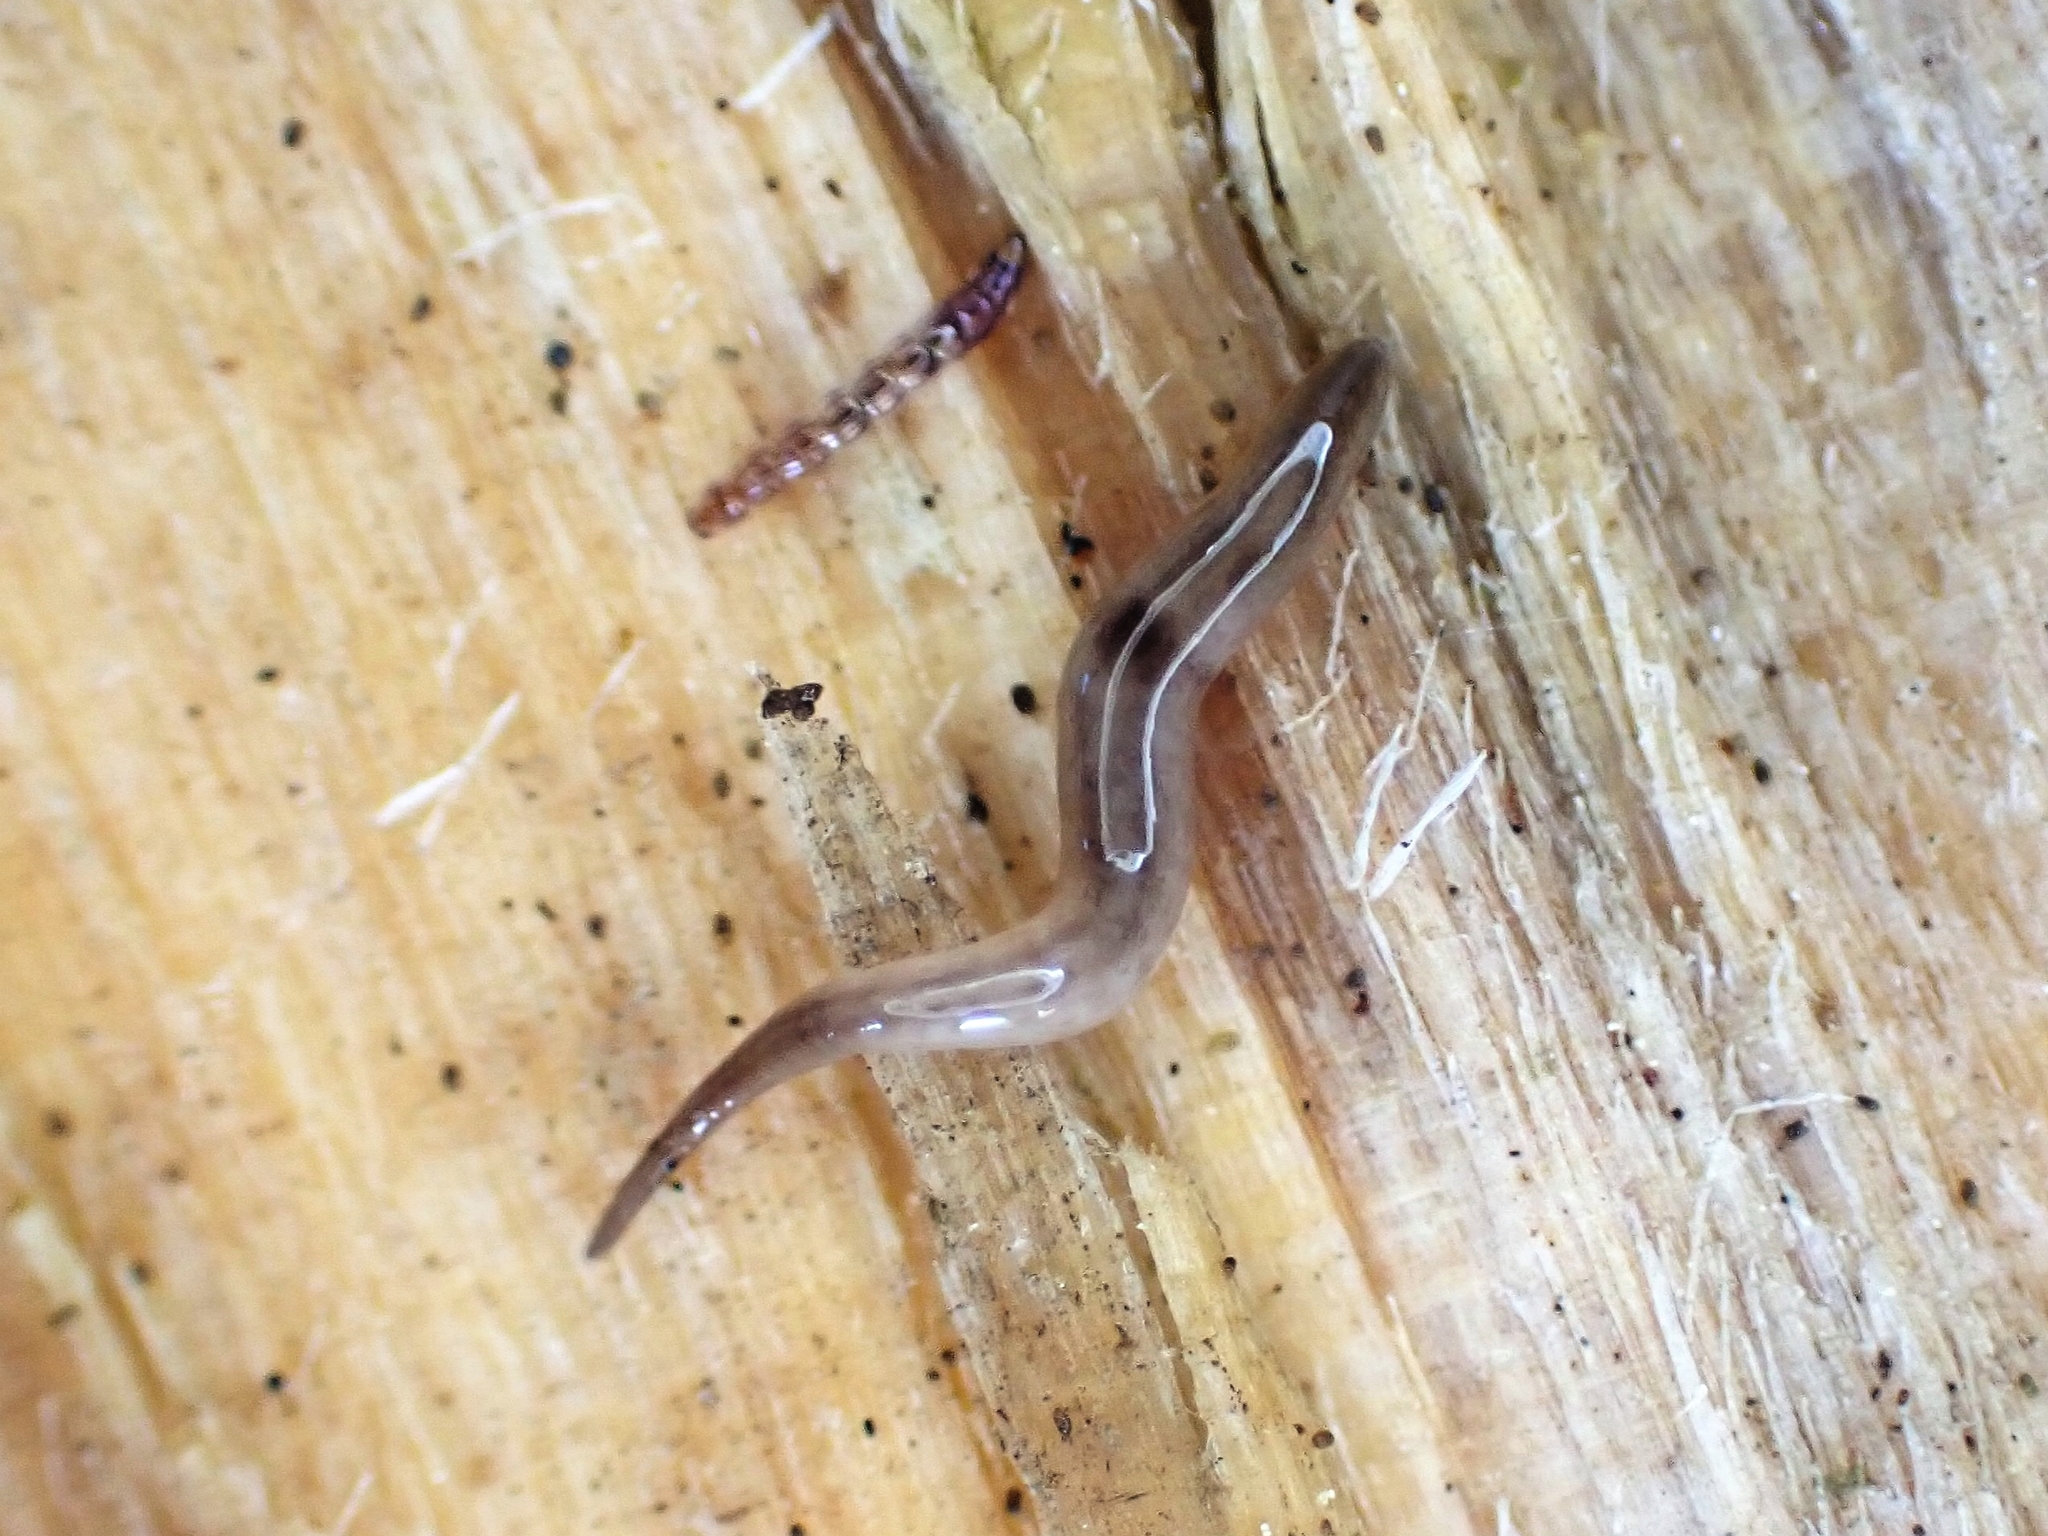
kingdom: Animalia
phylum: Platyhelminthes
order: Tricladida
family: Geoplanidae
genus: Rhynchodemus
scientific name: Rhynchodemus sylvaticus
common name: A flatworm
